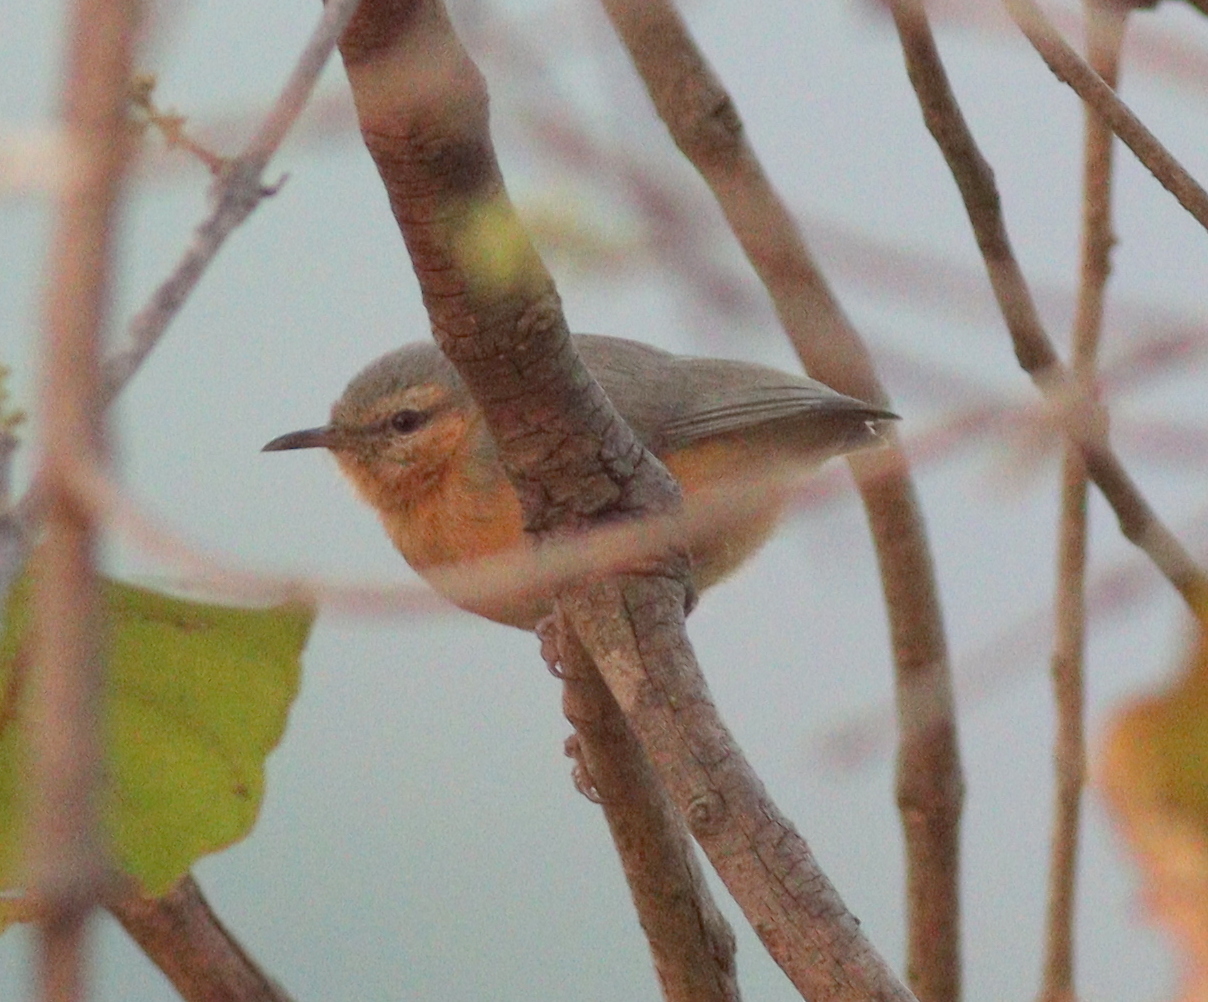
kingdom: Animalia
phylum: Chordata
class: Aves
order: Passeriformes
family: Macrosphenidae
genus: Sylvietta
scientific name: Sylvietta brachyura
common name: Northern crombec
